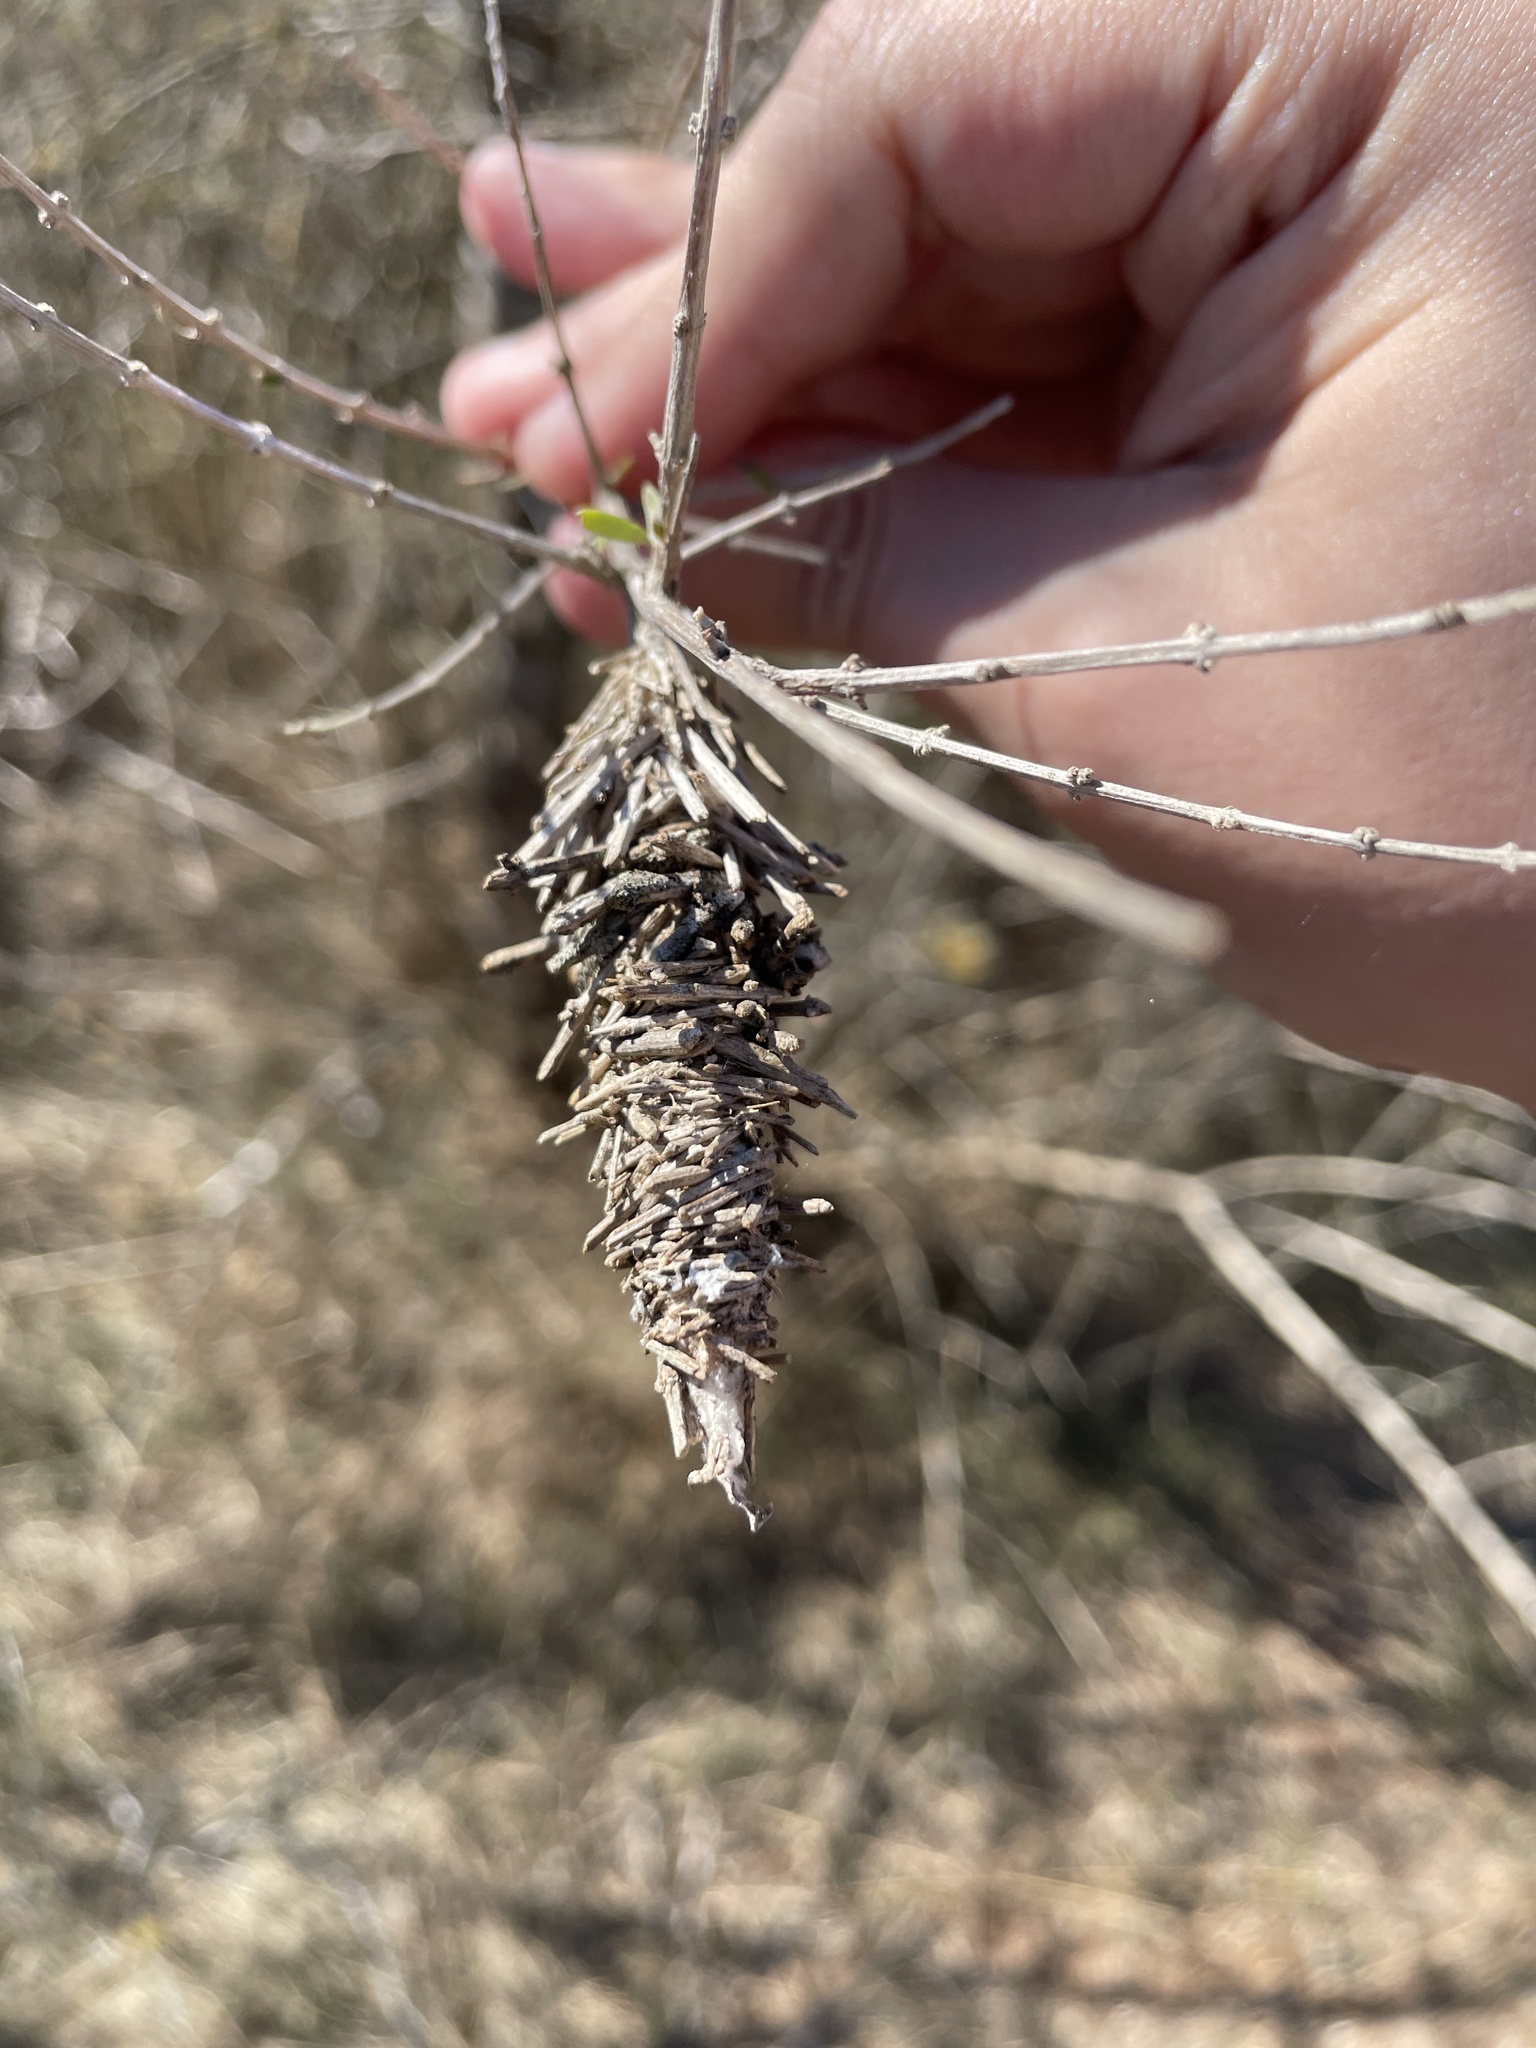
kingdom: Animalia
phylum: Arthropoda
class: Insecta
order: Lepidoptera
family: Psychidae
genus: Oiketicus
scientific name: Oiketicus
